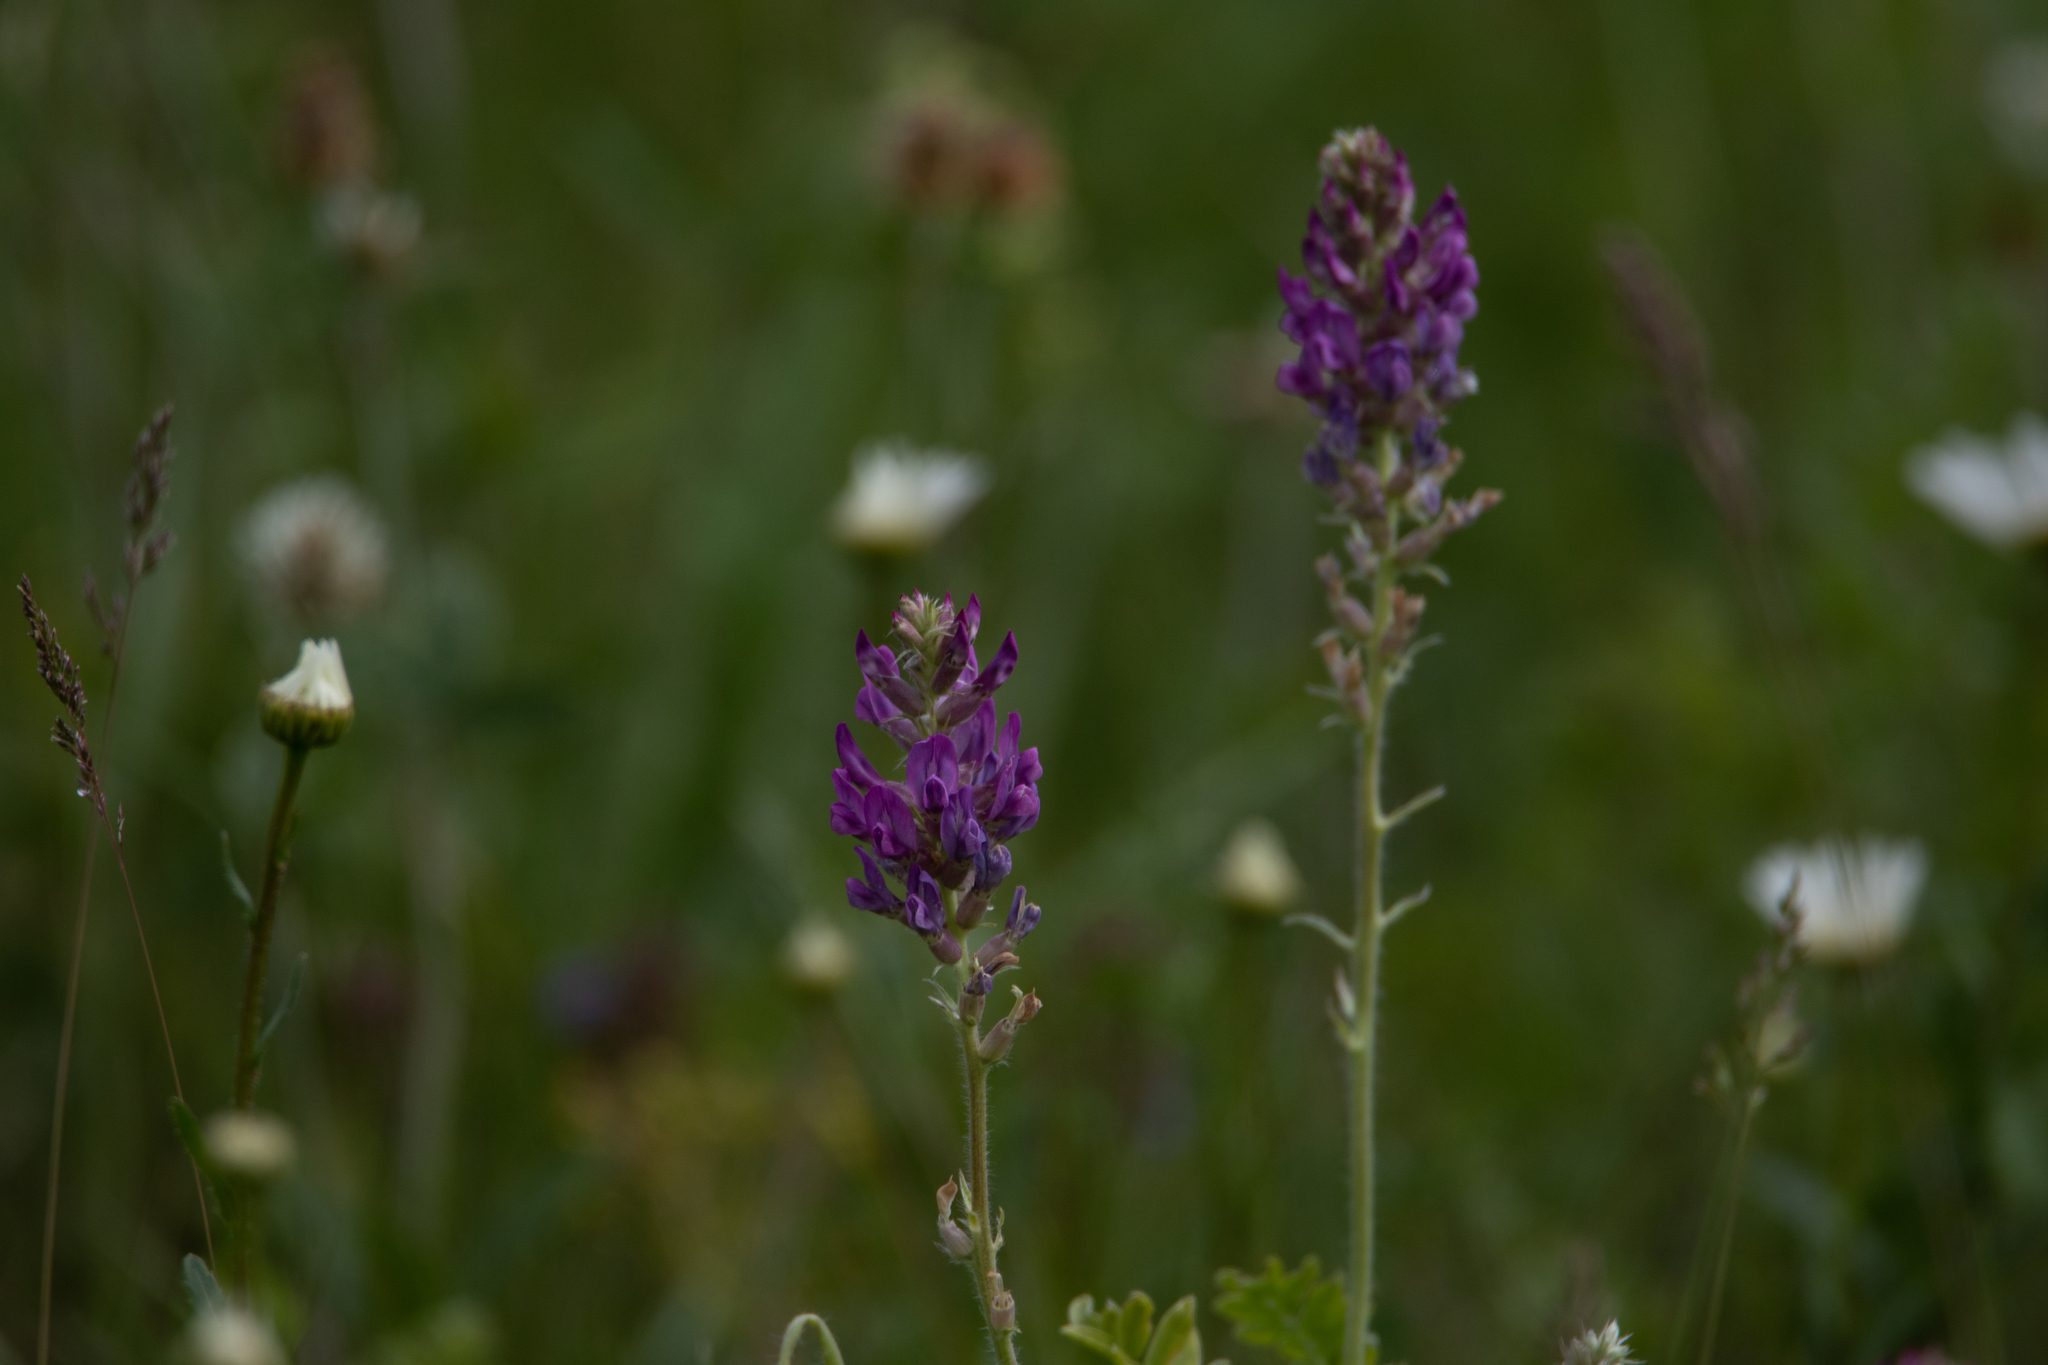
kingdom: Plantae
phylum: Tracheophyta
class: Magnoliopsida
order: Fabales
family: Fabaceae
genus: Oxytropis
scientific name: Oxytropis campanulata
